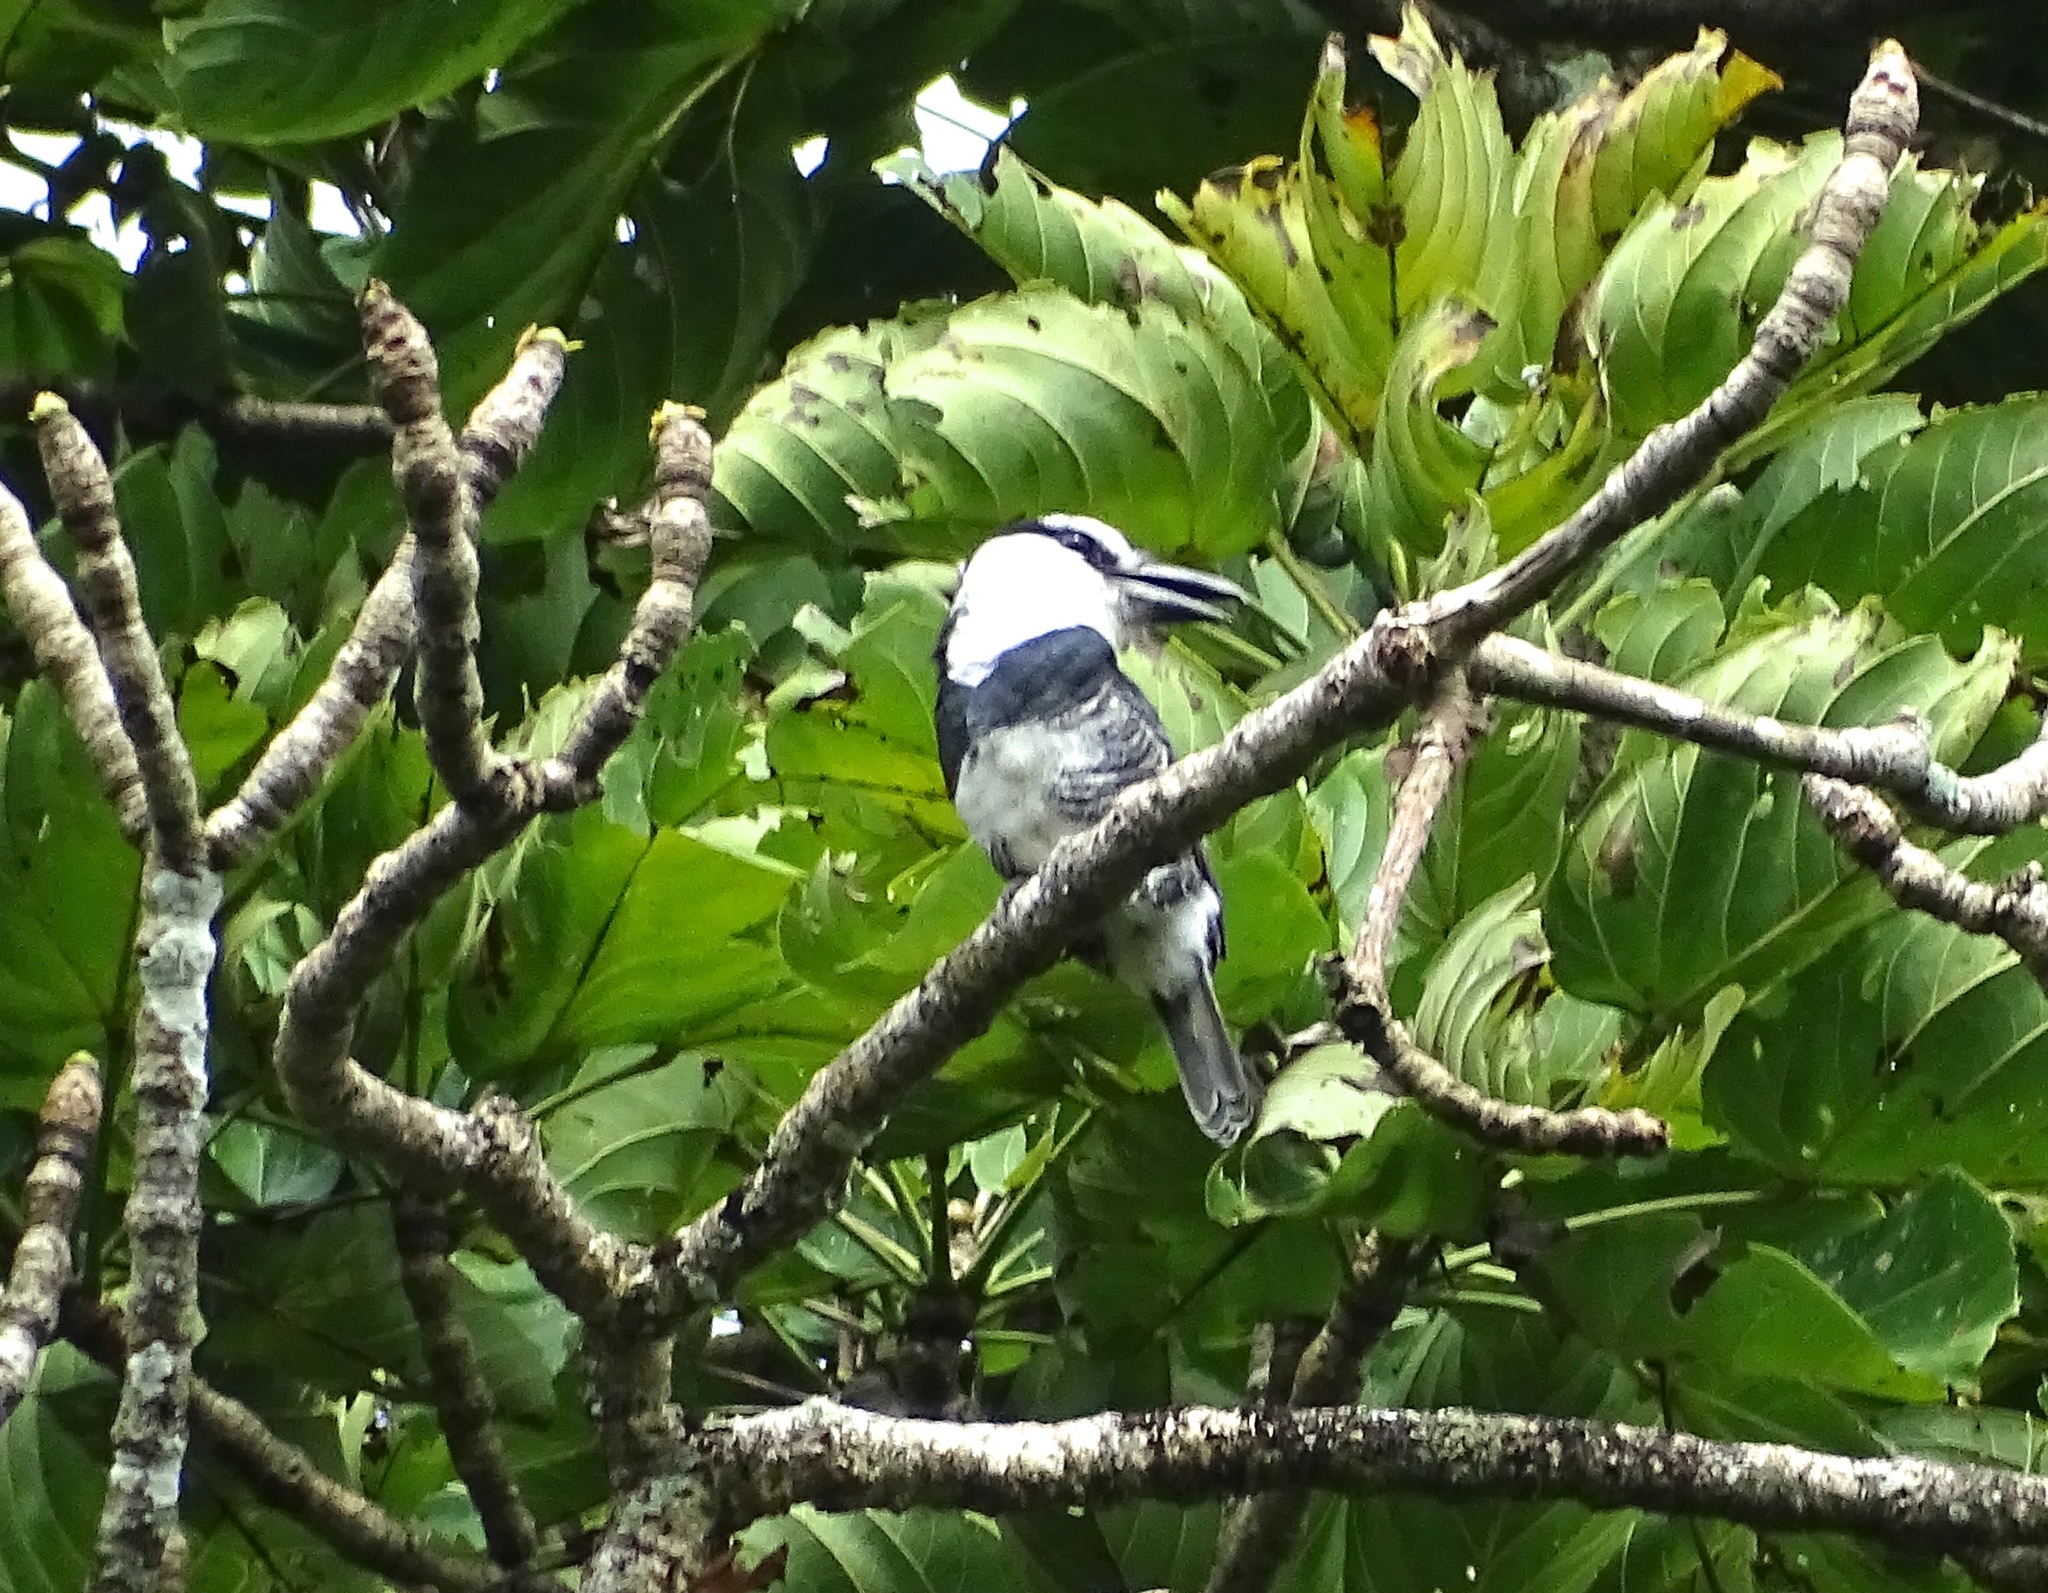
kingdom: Animalia
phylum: Chordata
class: Aves
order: Piciformes
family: Bucconidae
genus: Notharchus
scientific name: Notharchus hyperrhynchus
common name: White-necked puffbird
